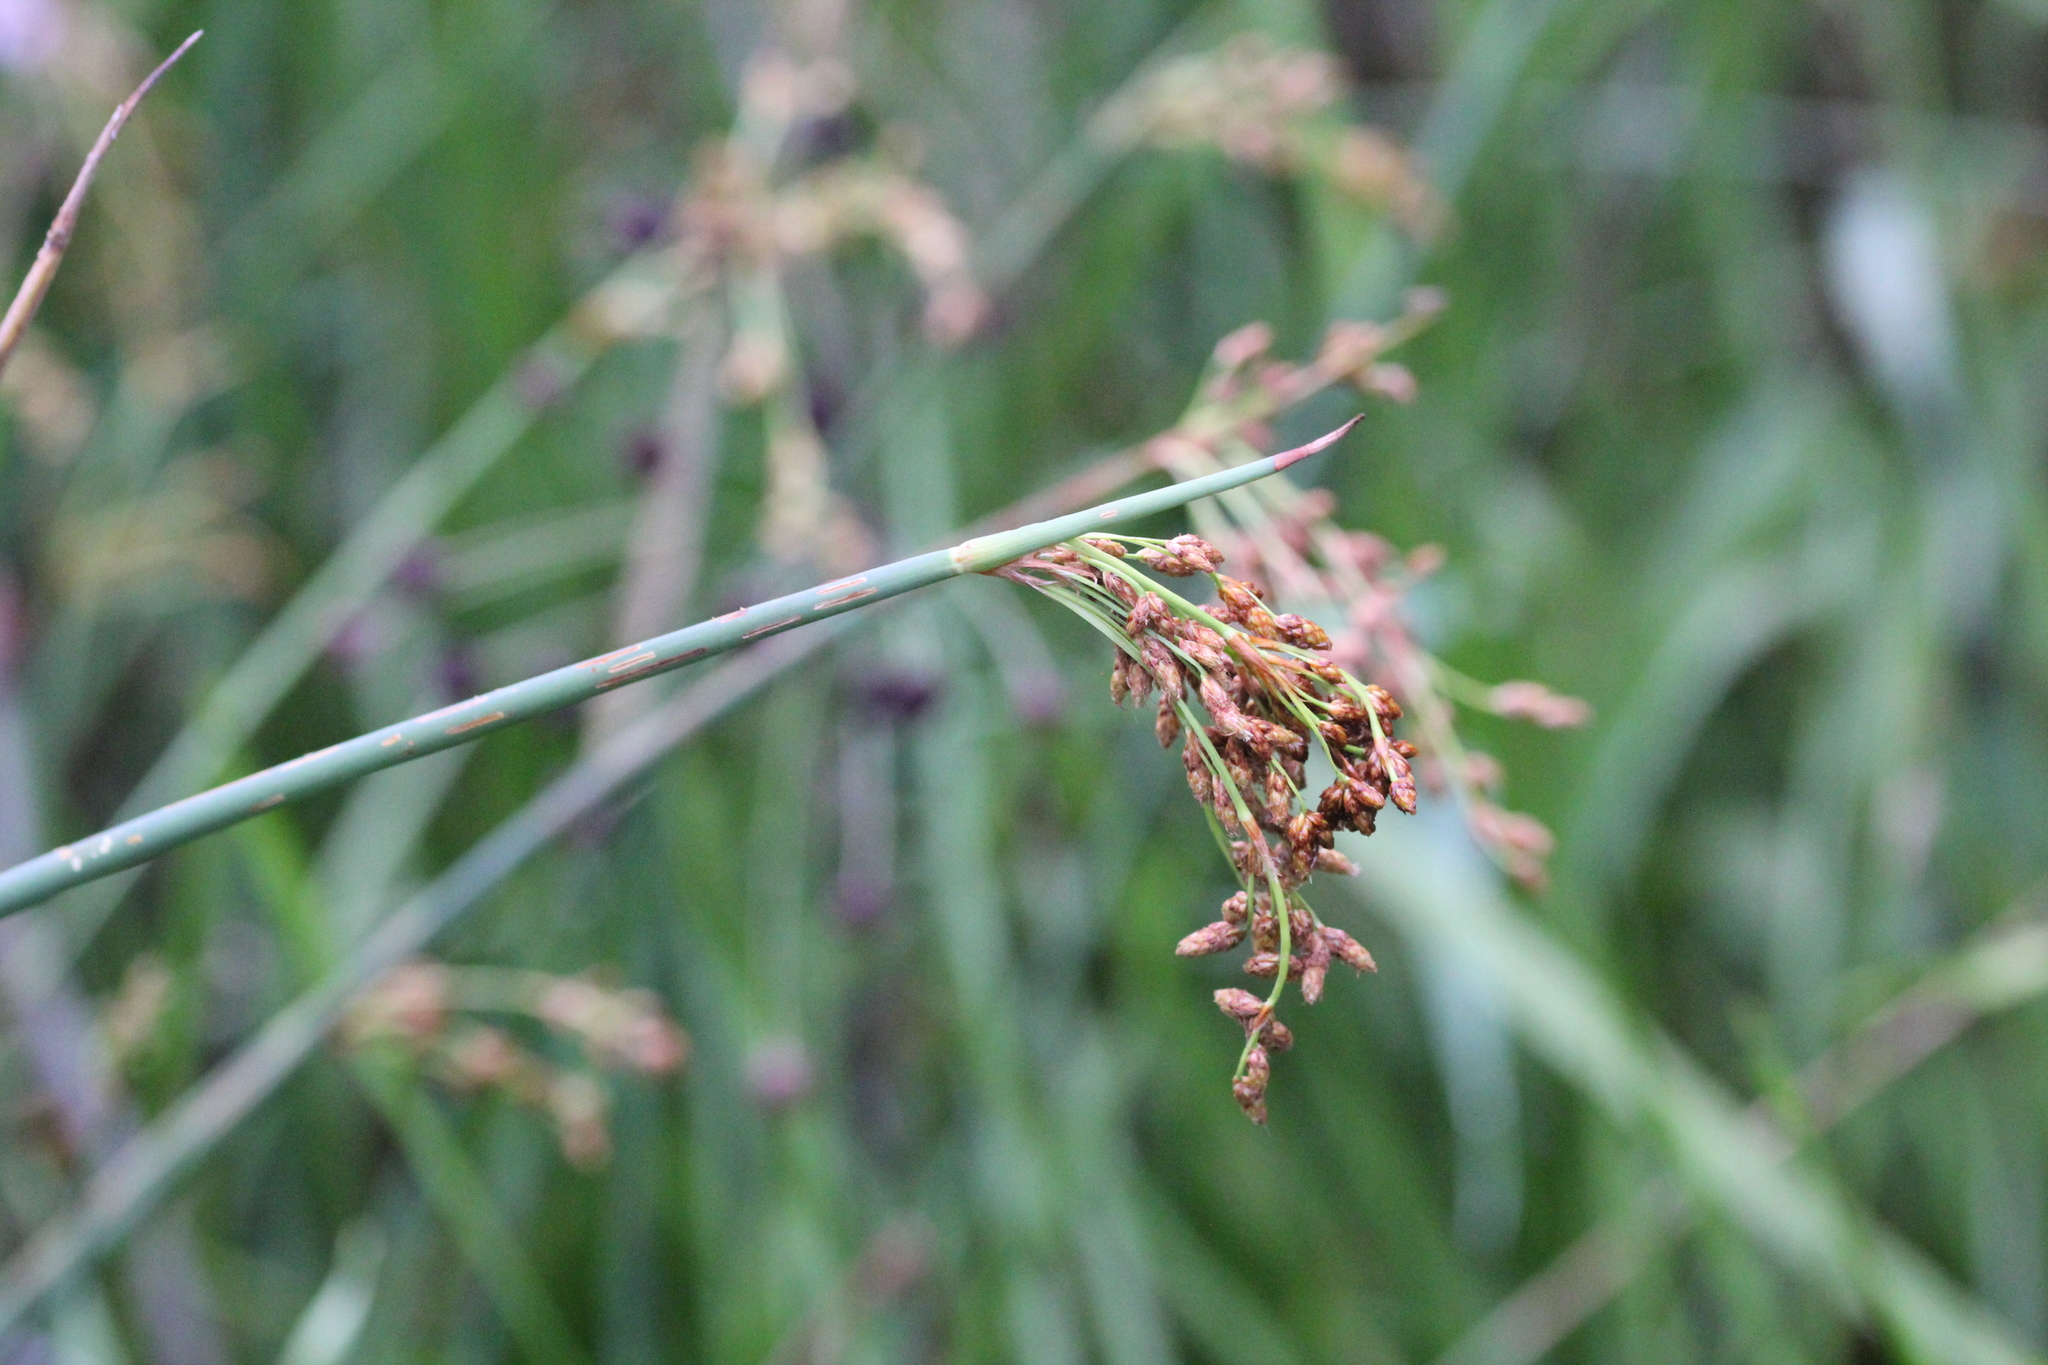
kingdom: Plantae
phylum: Tracheophyta
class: Liliopsida
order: Poales
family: Cyperaceae
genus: Schoenoplectus
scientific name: Schoenoplectus tabernaemontani
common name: Grey club-rush
